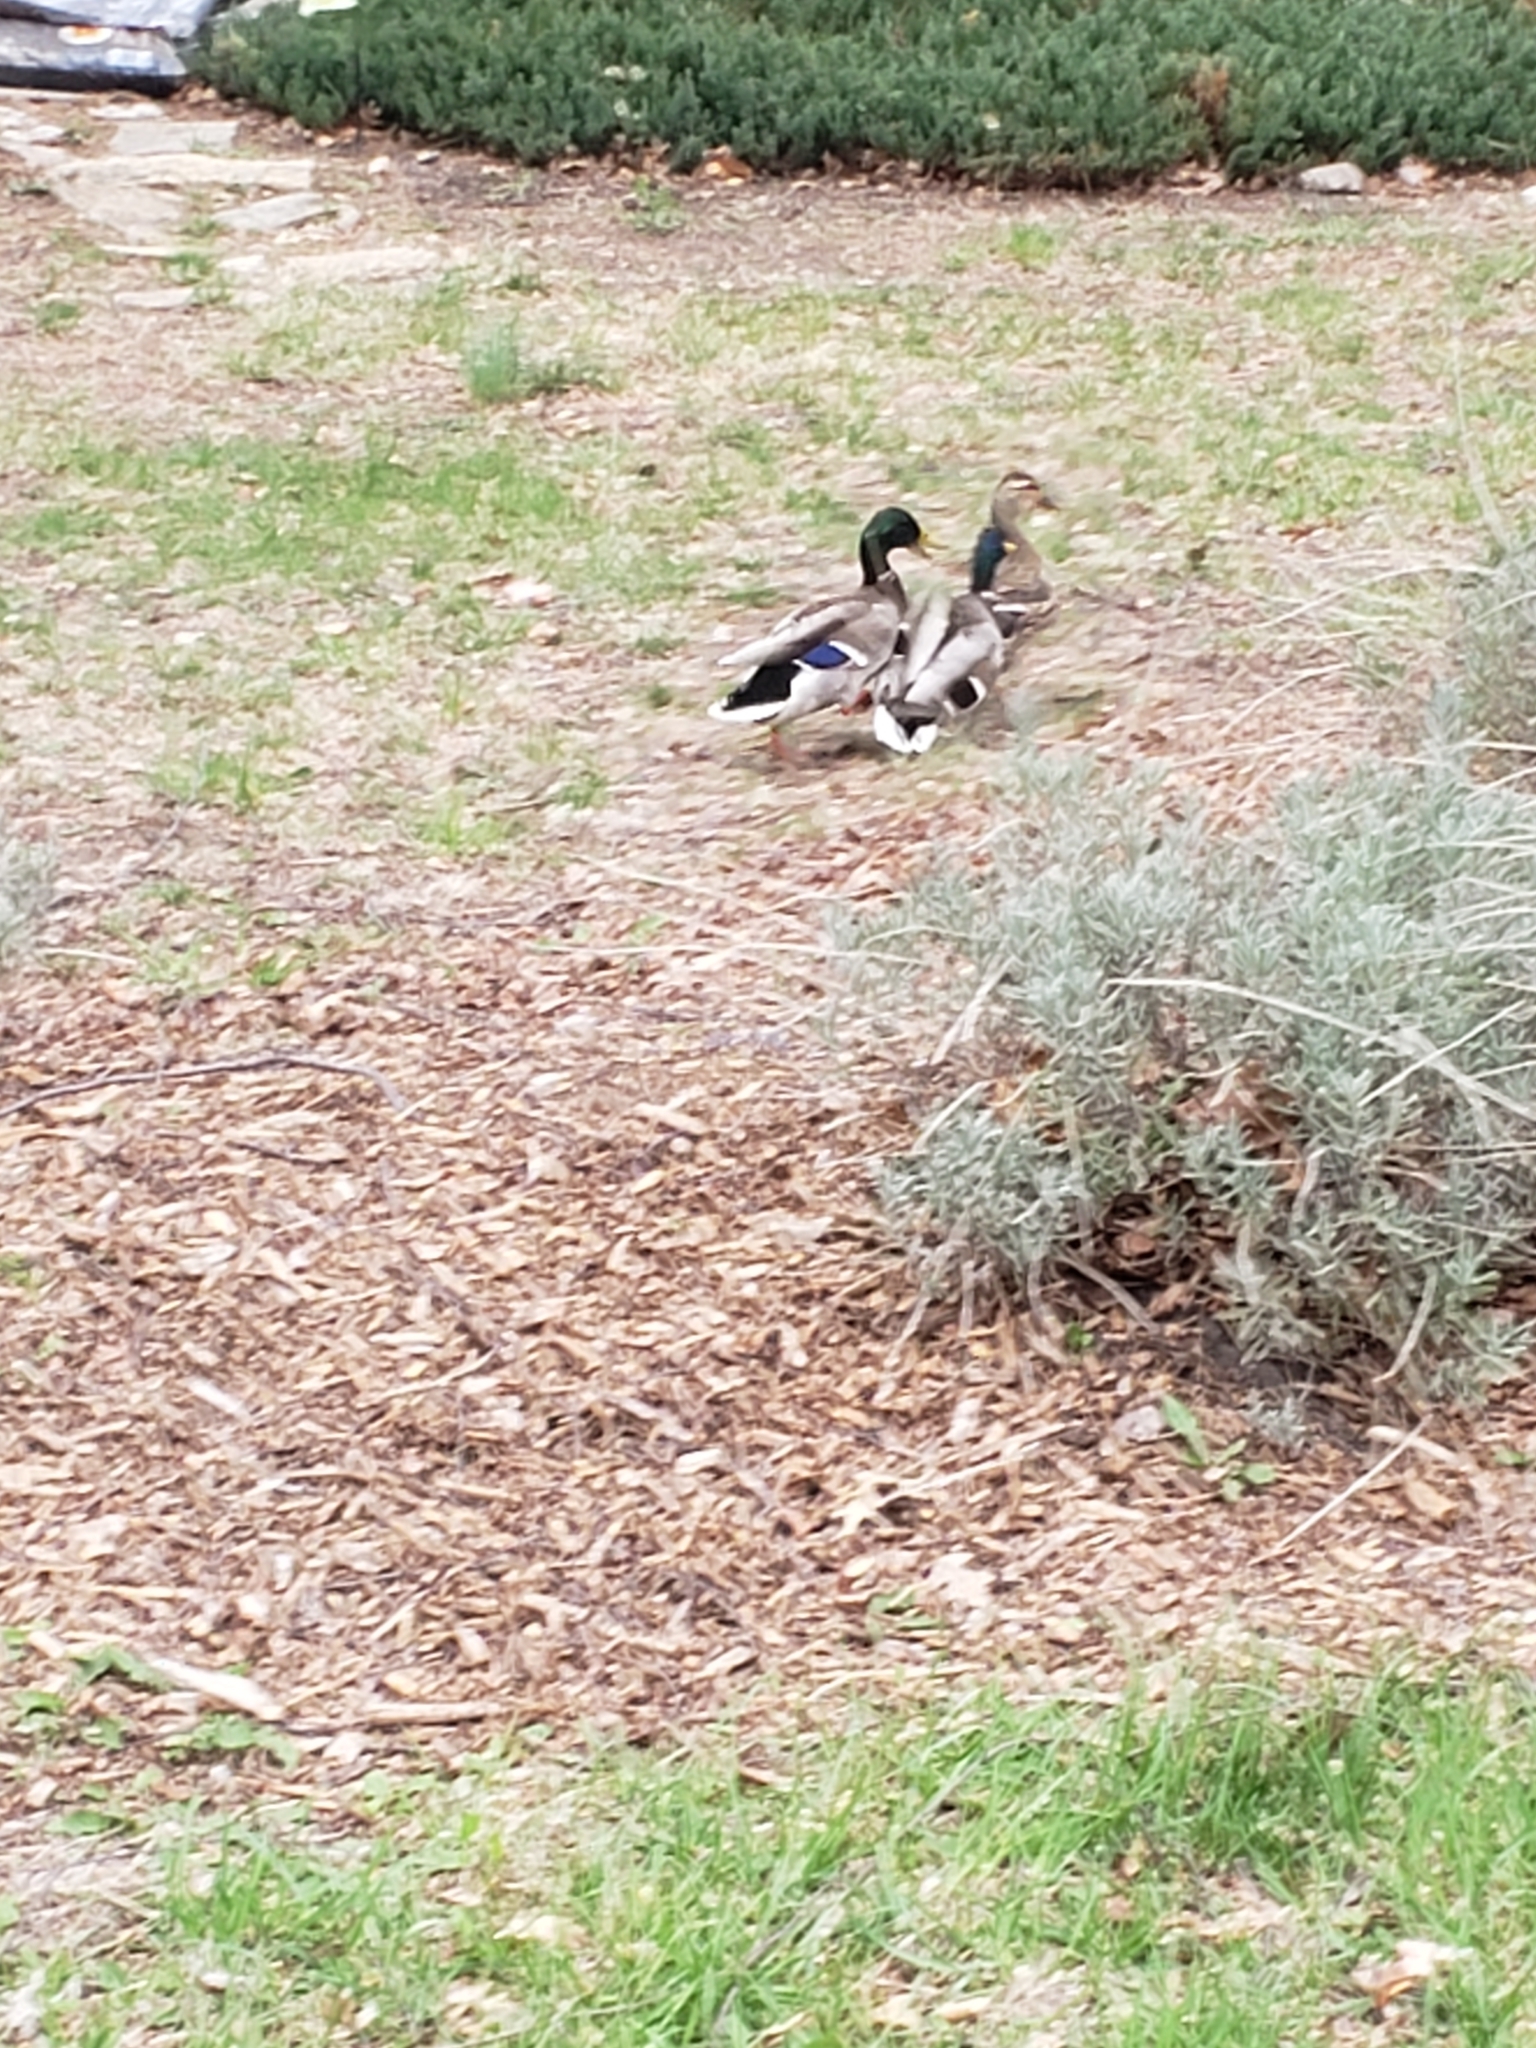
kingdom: Animalia
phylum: Chordata
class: Aves
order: Anseriformes
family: Anatidae
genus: Anas
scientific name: Anas platyrhynchos
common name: Mallard
